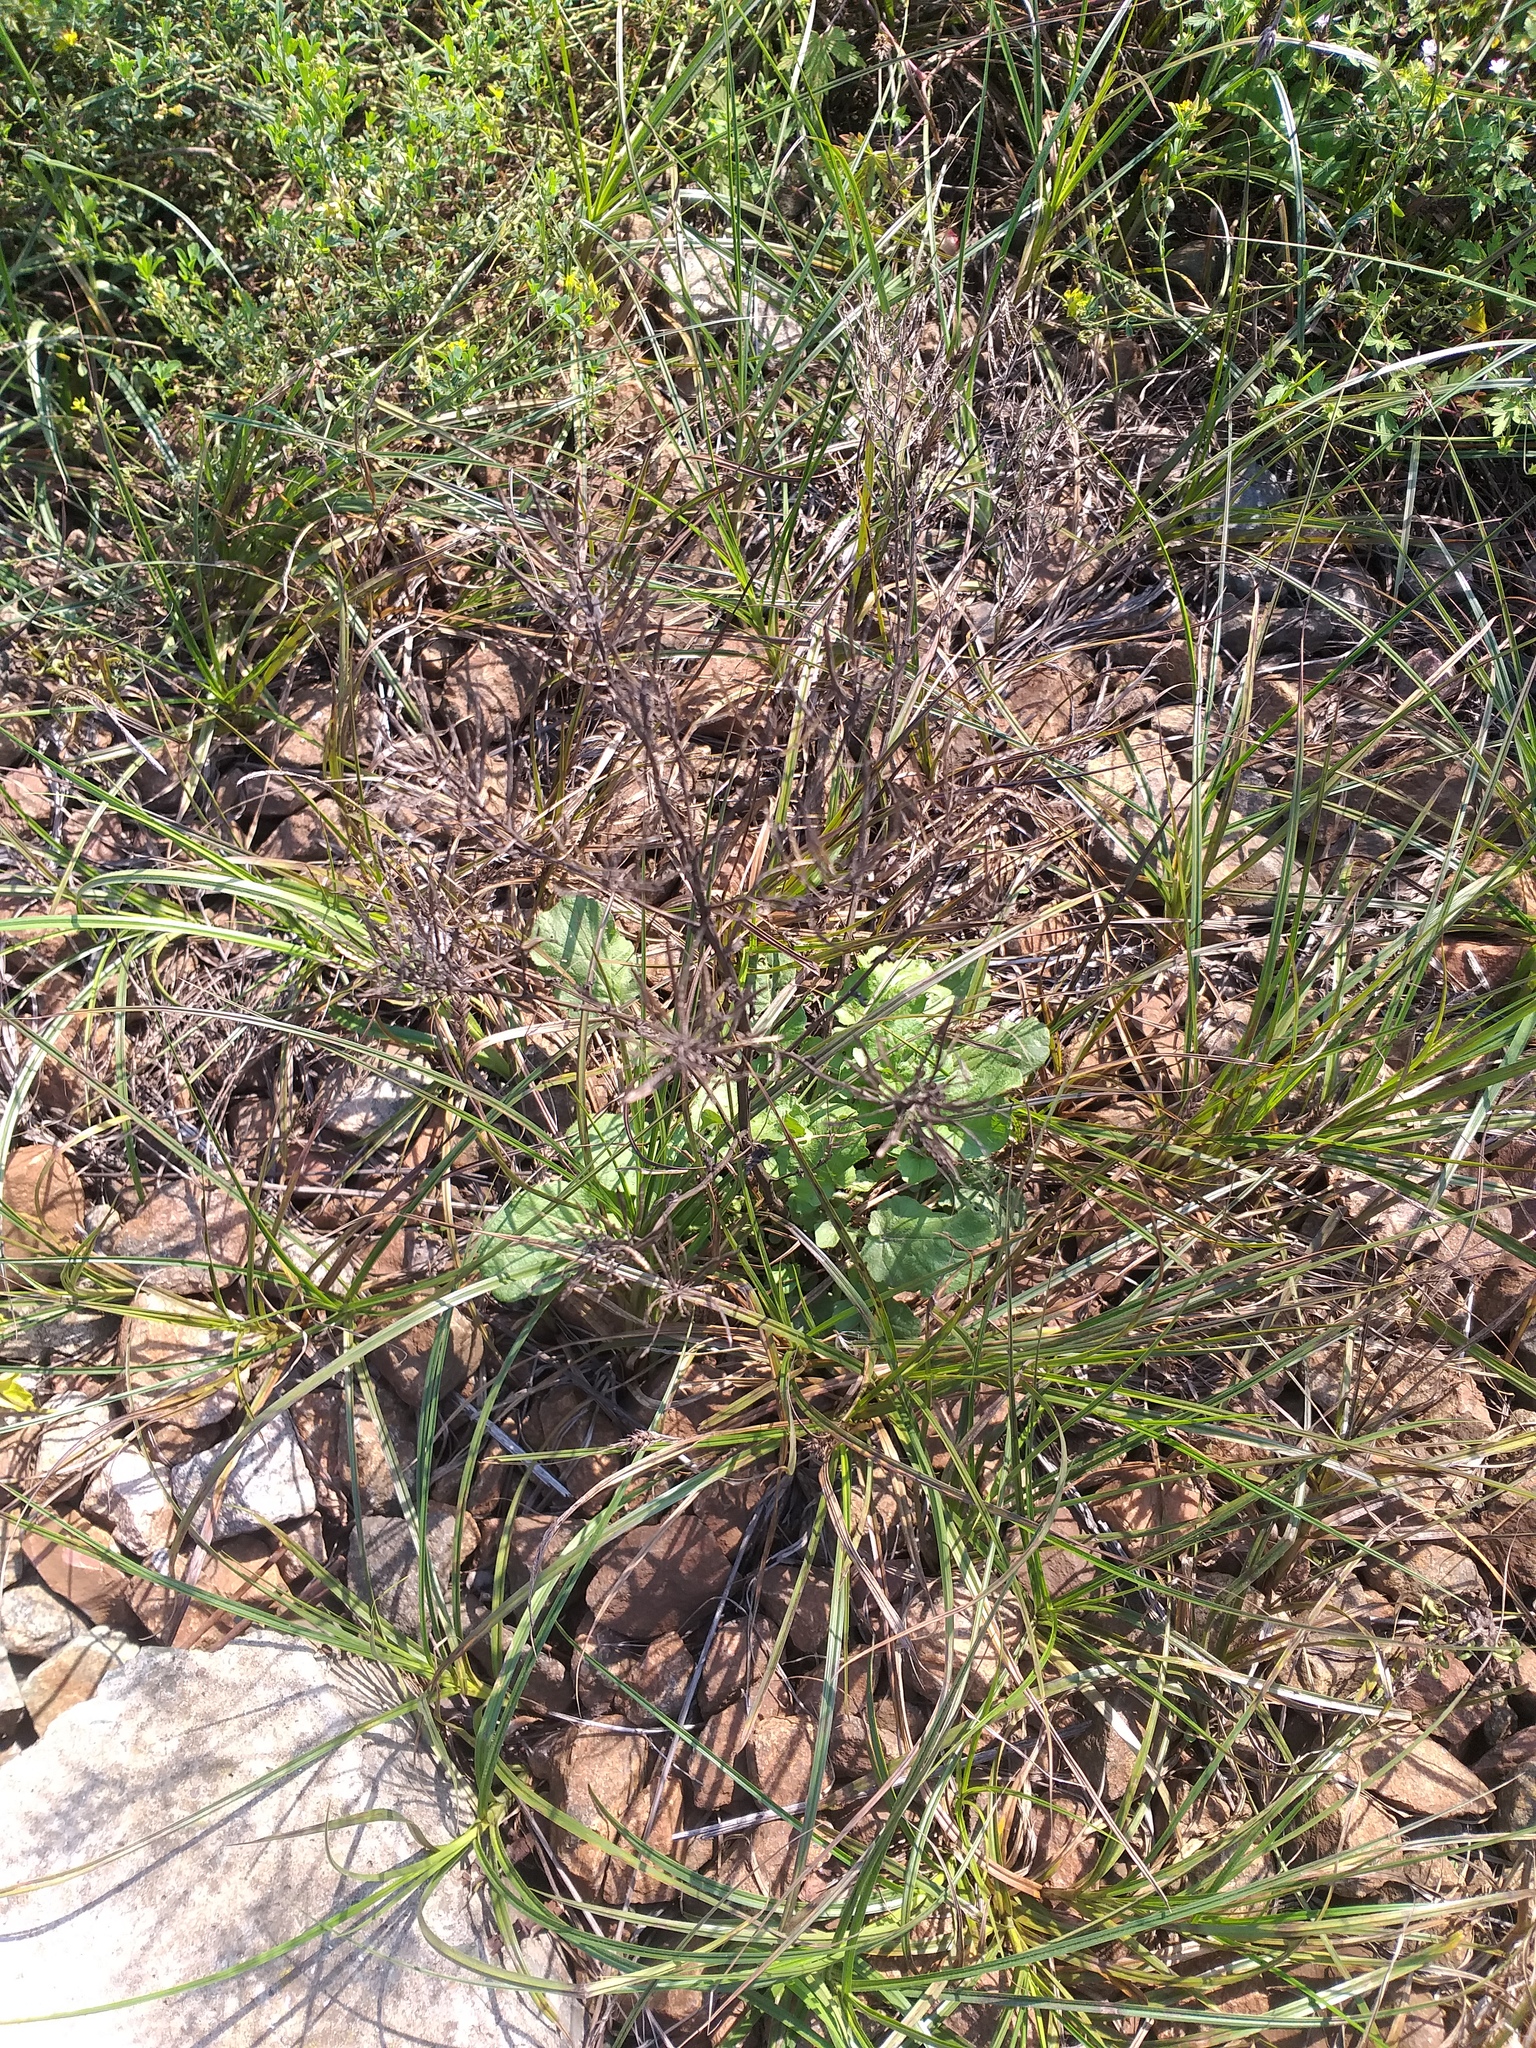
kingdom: Plantae
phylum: Tracheophyta
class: Magnoliopsida
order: Brassicales
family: Brassicaceae
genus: Barbarea
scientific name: Barbarea vulgaris
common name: Cressy-greens
